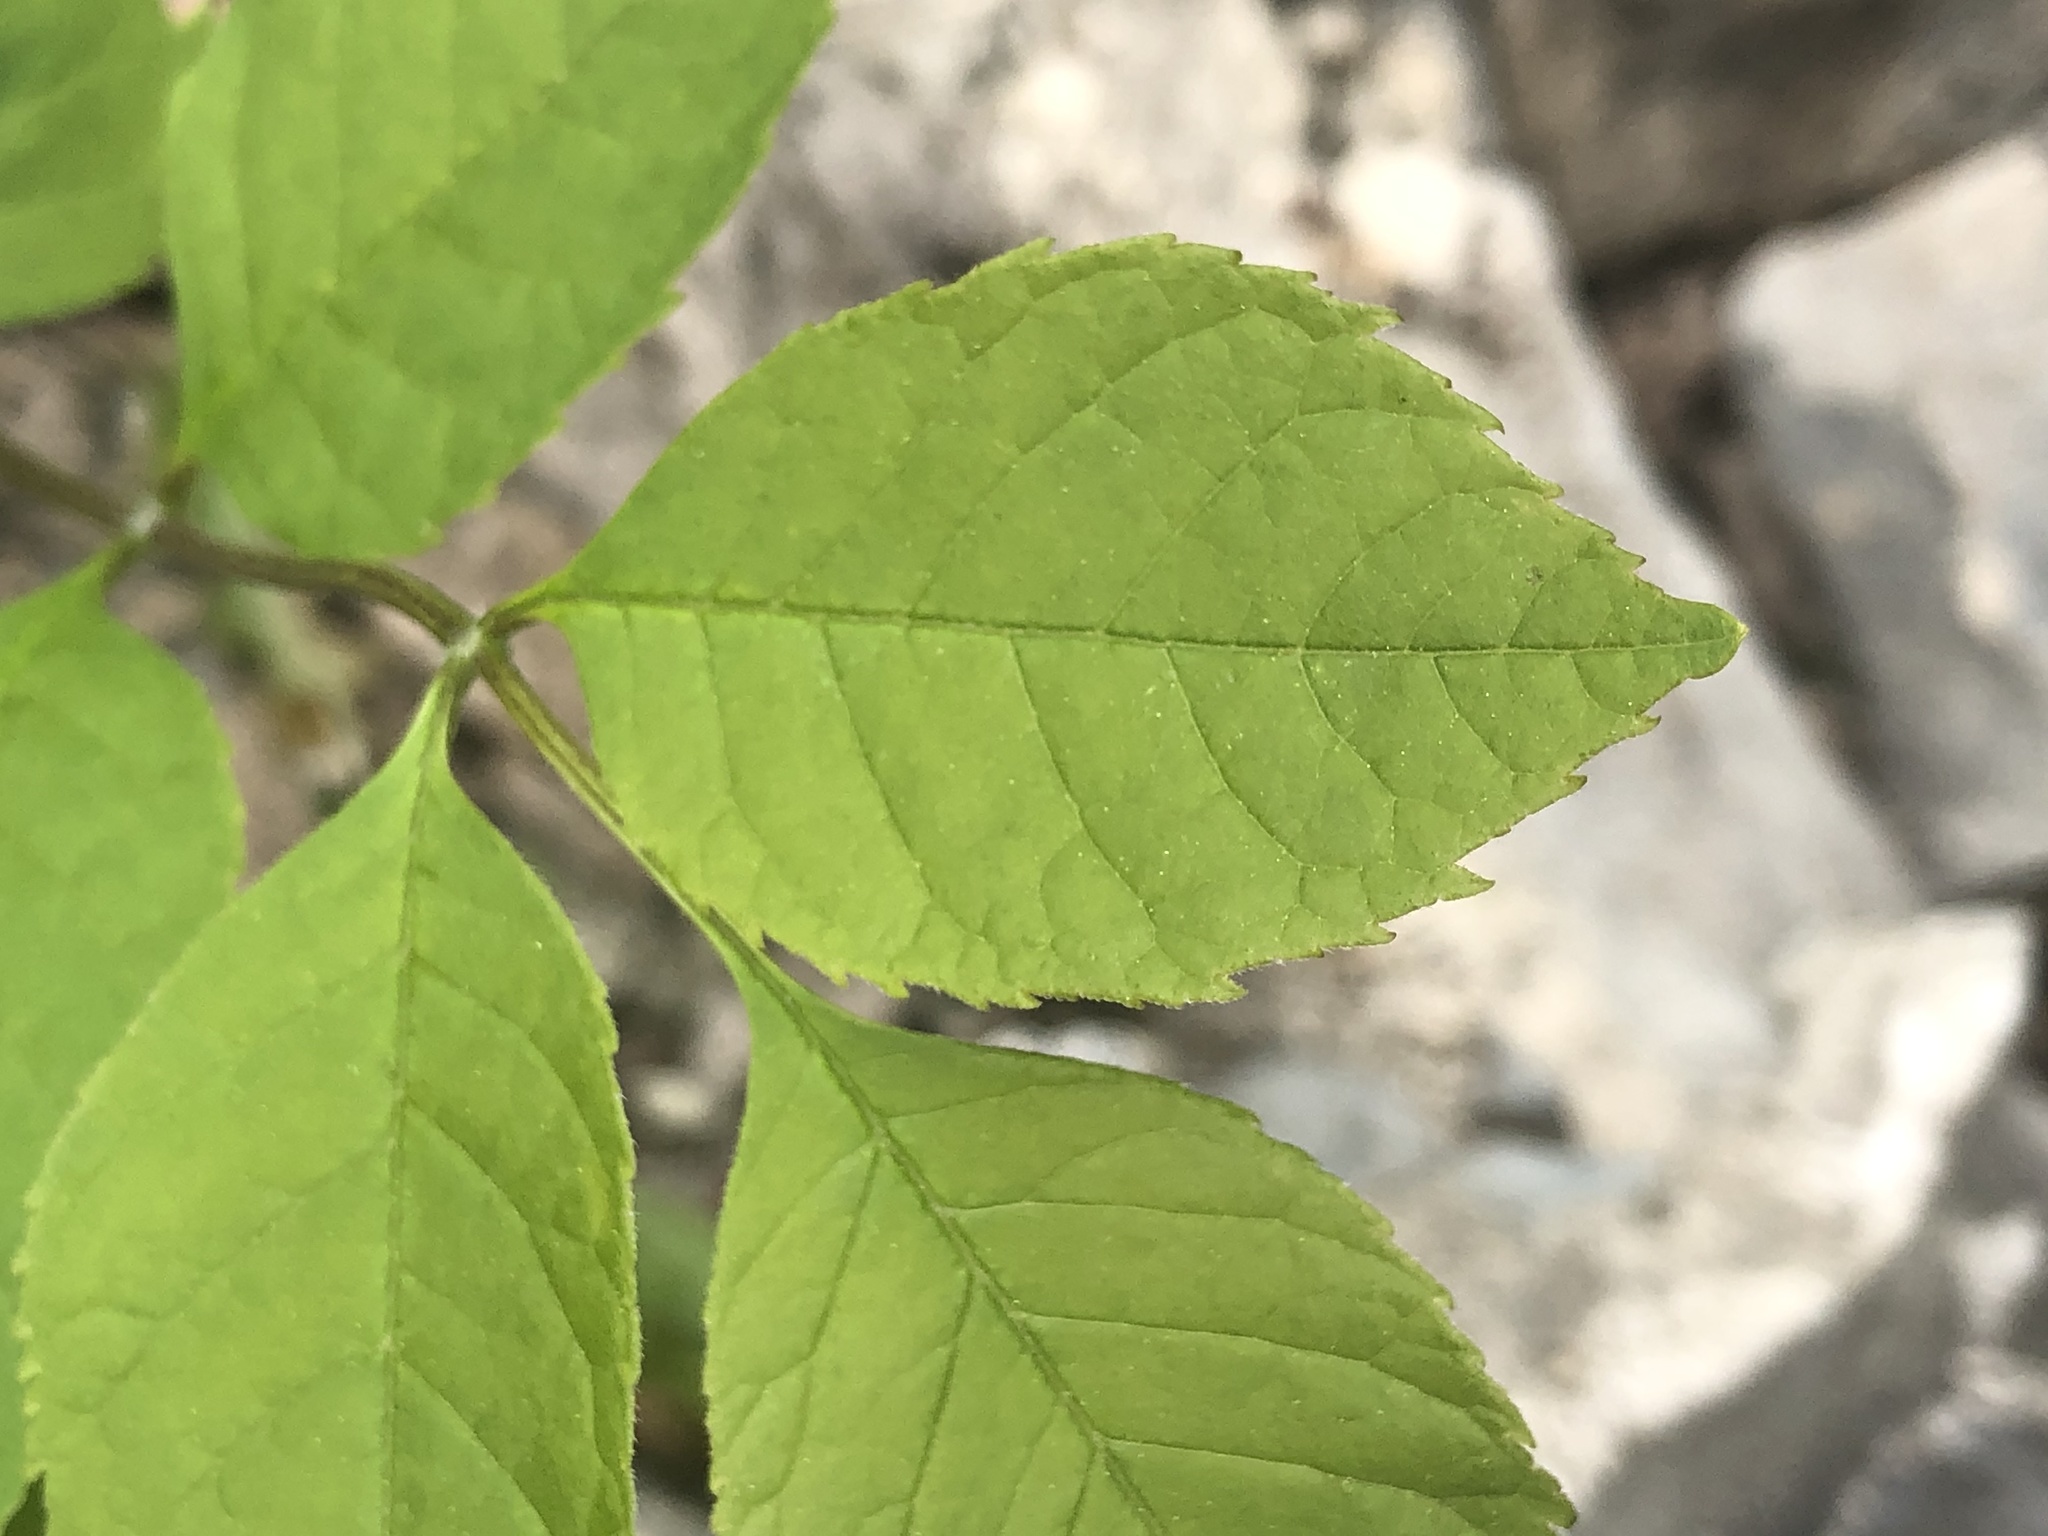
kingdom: Plantae
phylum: Tracheophyta
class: Magnoliopsida
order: Lamiales
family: Oleaceae
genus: Fraxinus
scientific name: Fraxinus pennsylvanica
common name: Green ash
